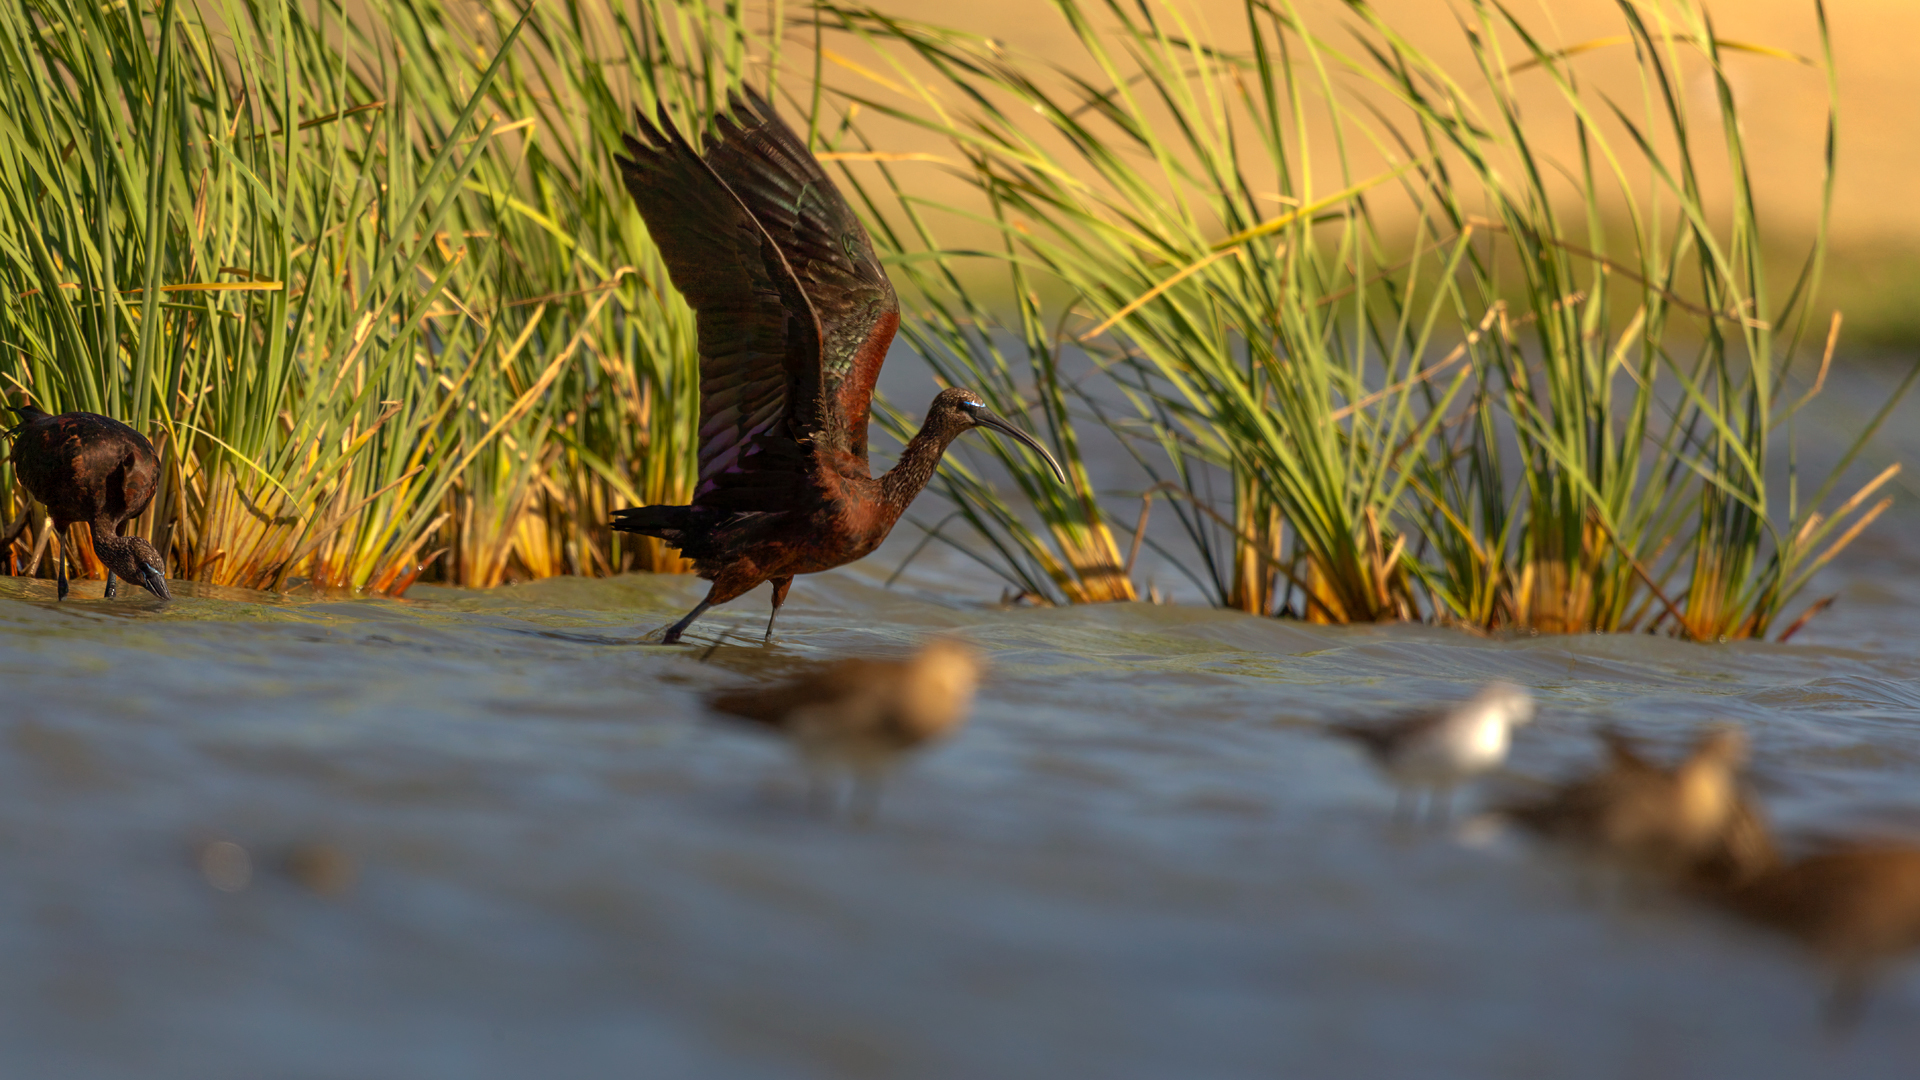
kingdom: Animalia
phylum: Chordata
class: Aves
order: Pelecaniformes
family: Threskiornithidae
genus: Plegadis
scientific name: Plegadis falcinellus
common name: Glossy ibis
